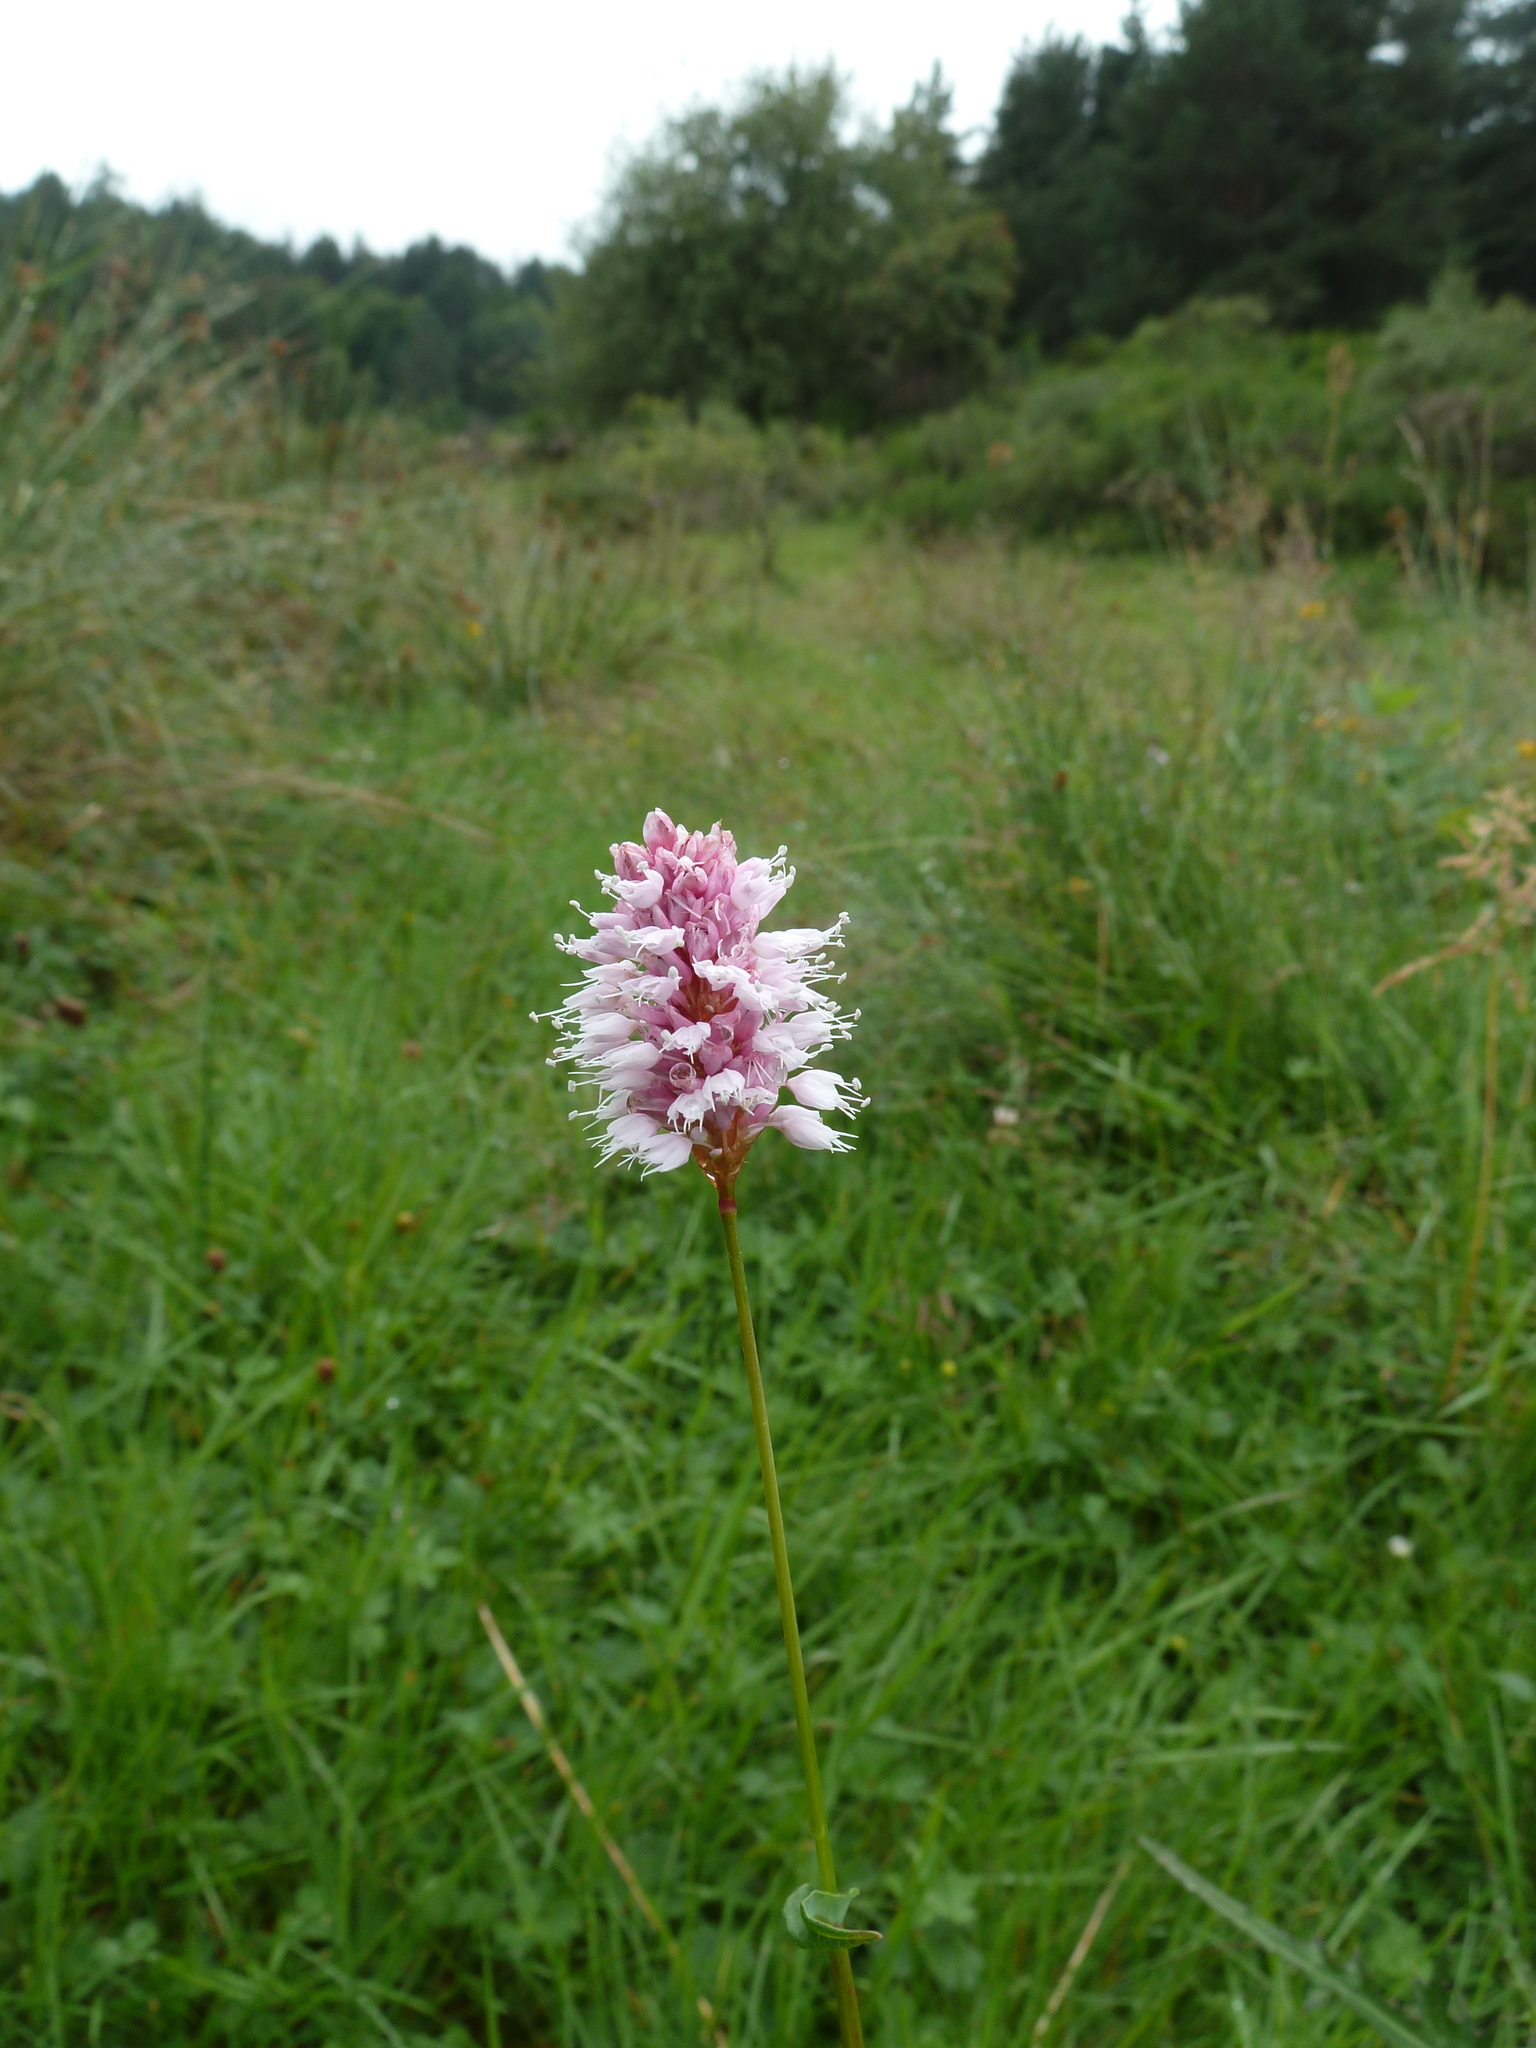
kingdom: Plantae
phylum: Tracheophyta
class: Magnoliopsida
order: Caryophyllales
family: Polygonaceae
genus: Bistorta
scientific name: Bistorta officinalis
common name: Common bistort
